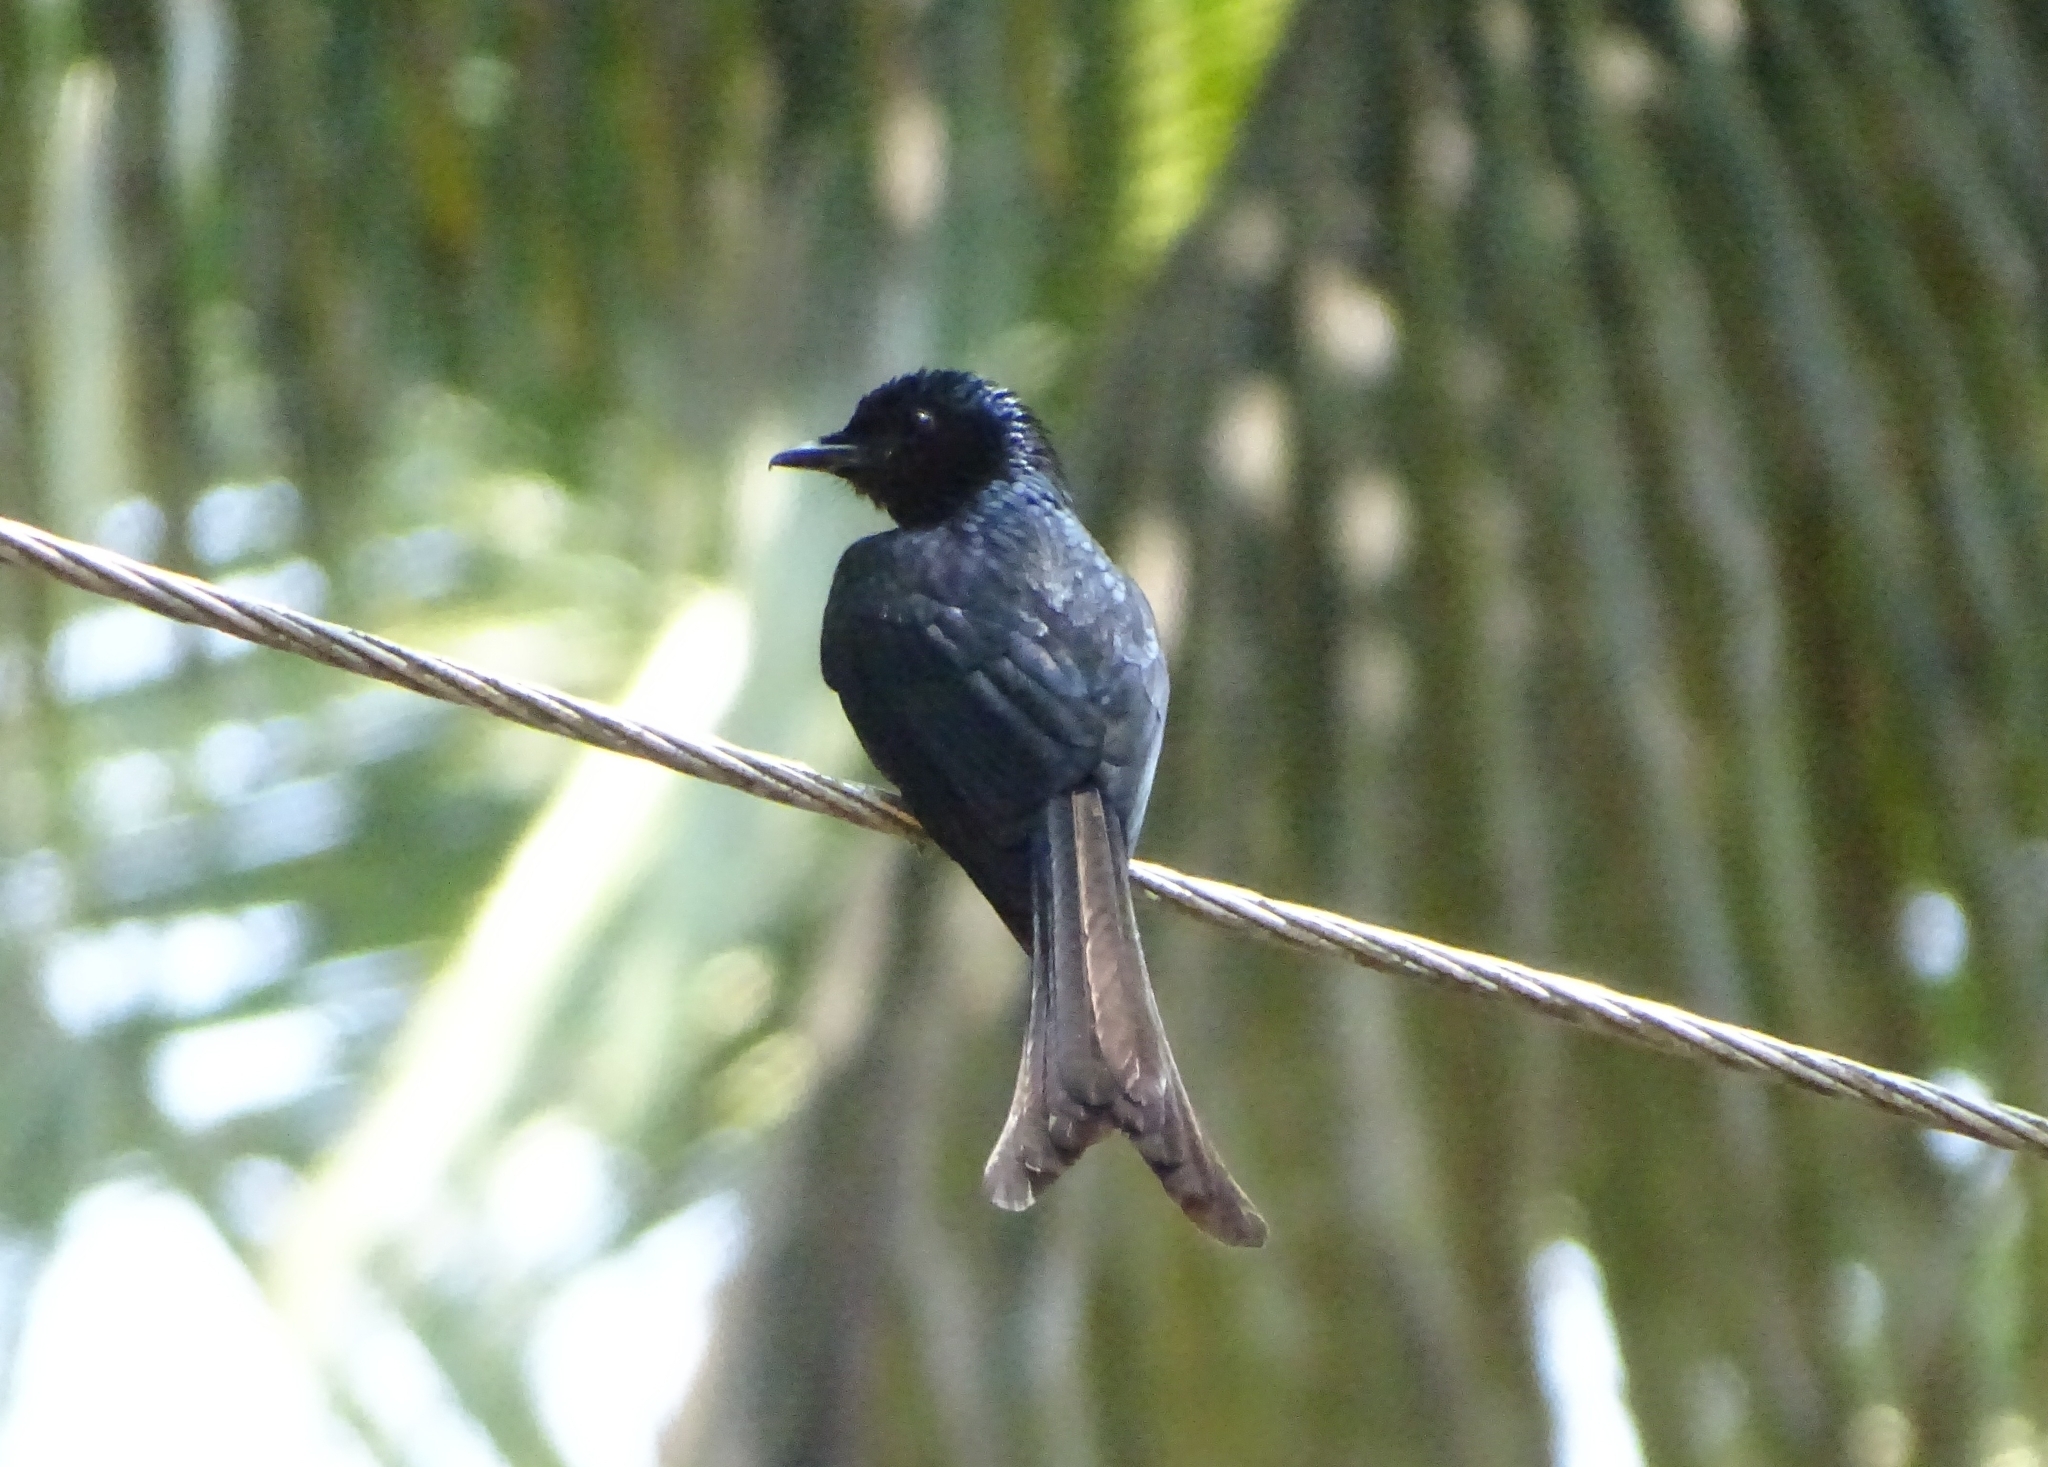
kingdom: Animalia
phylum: Chordata
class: Aves
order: Passeriformes
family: Dicruridae
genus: Dicrurus
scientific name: Dicrurus aeneus
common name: Bronzed drongo
